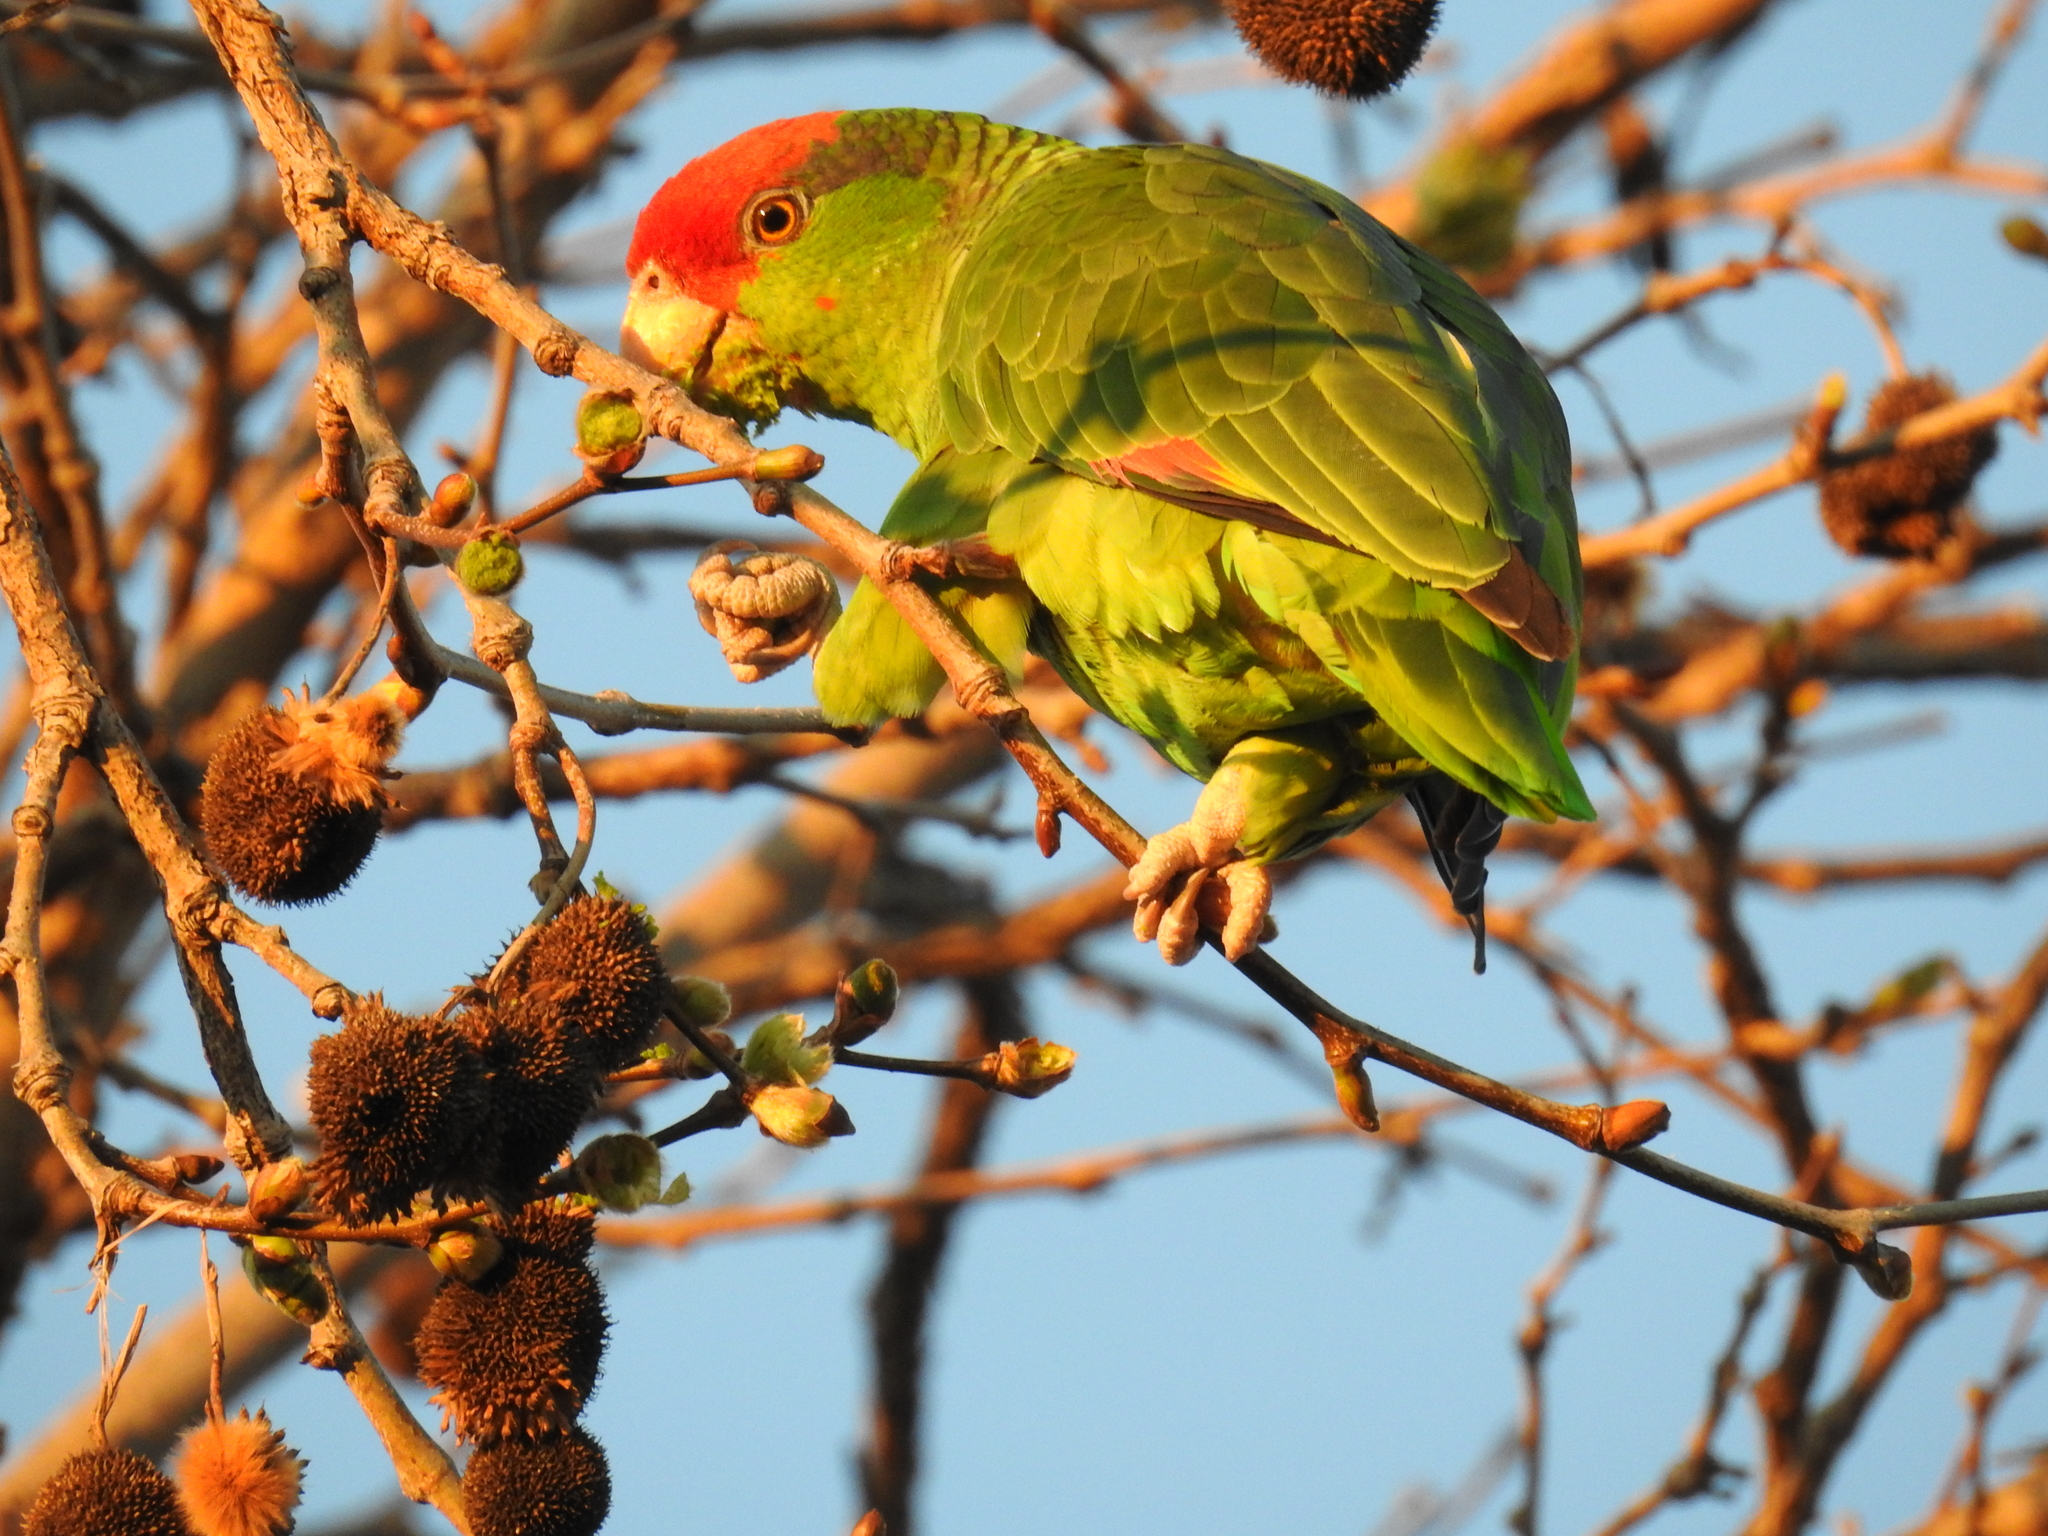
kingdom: Animalia
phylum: Chordata
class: Aves
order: Psittaciformes
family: Psittacidae
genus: Amazona
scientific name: Amazona viridigenalis
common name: Red-crowned amazon
